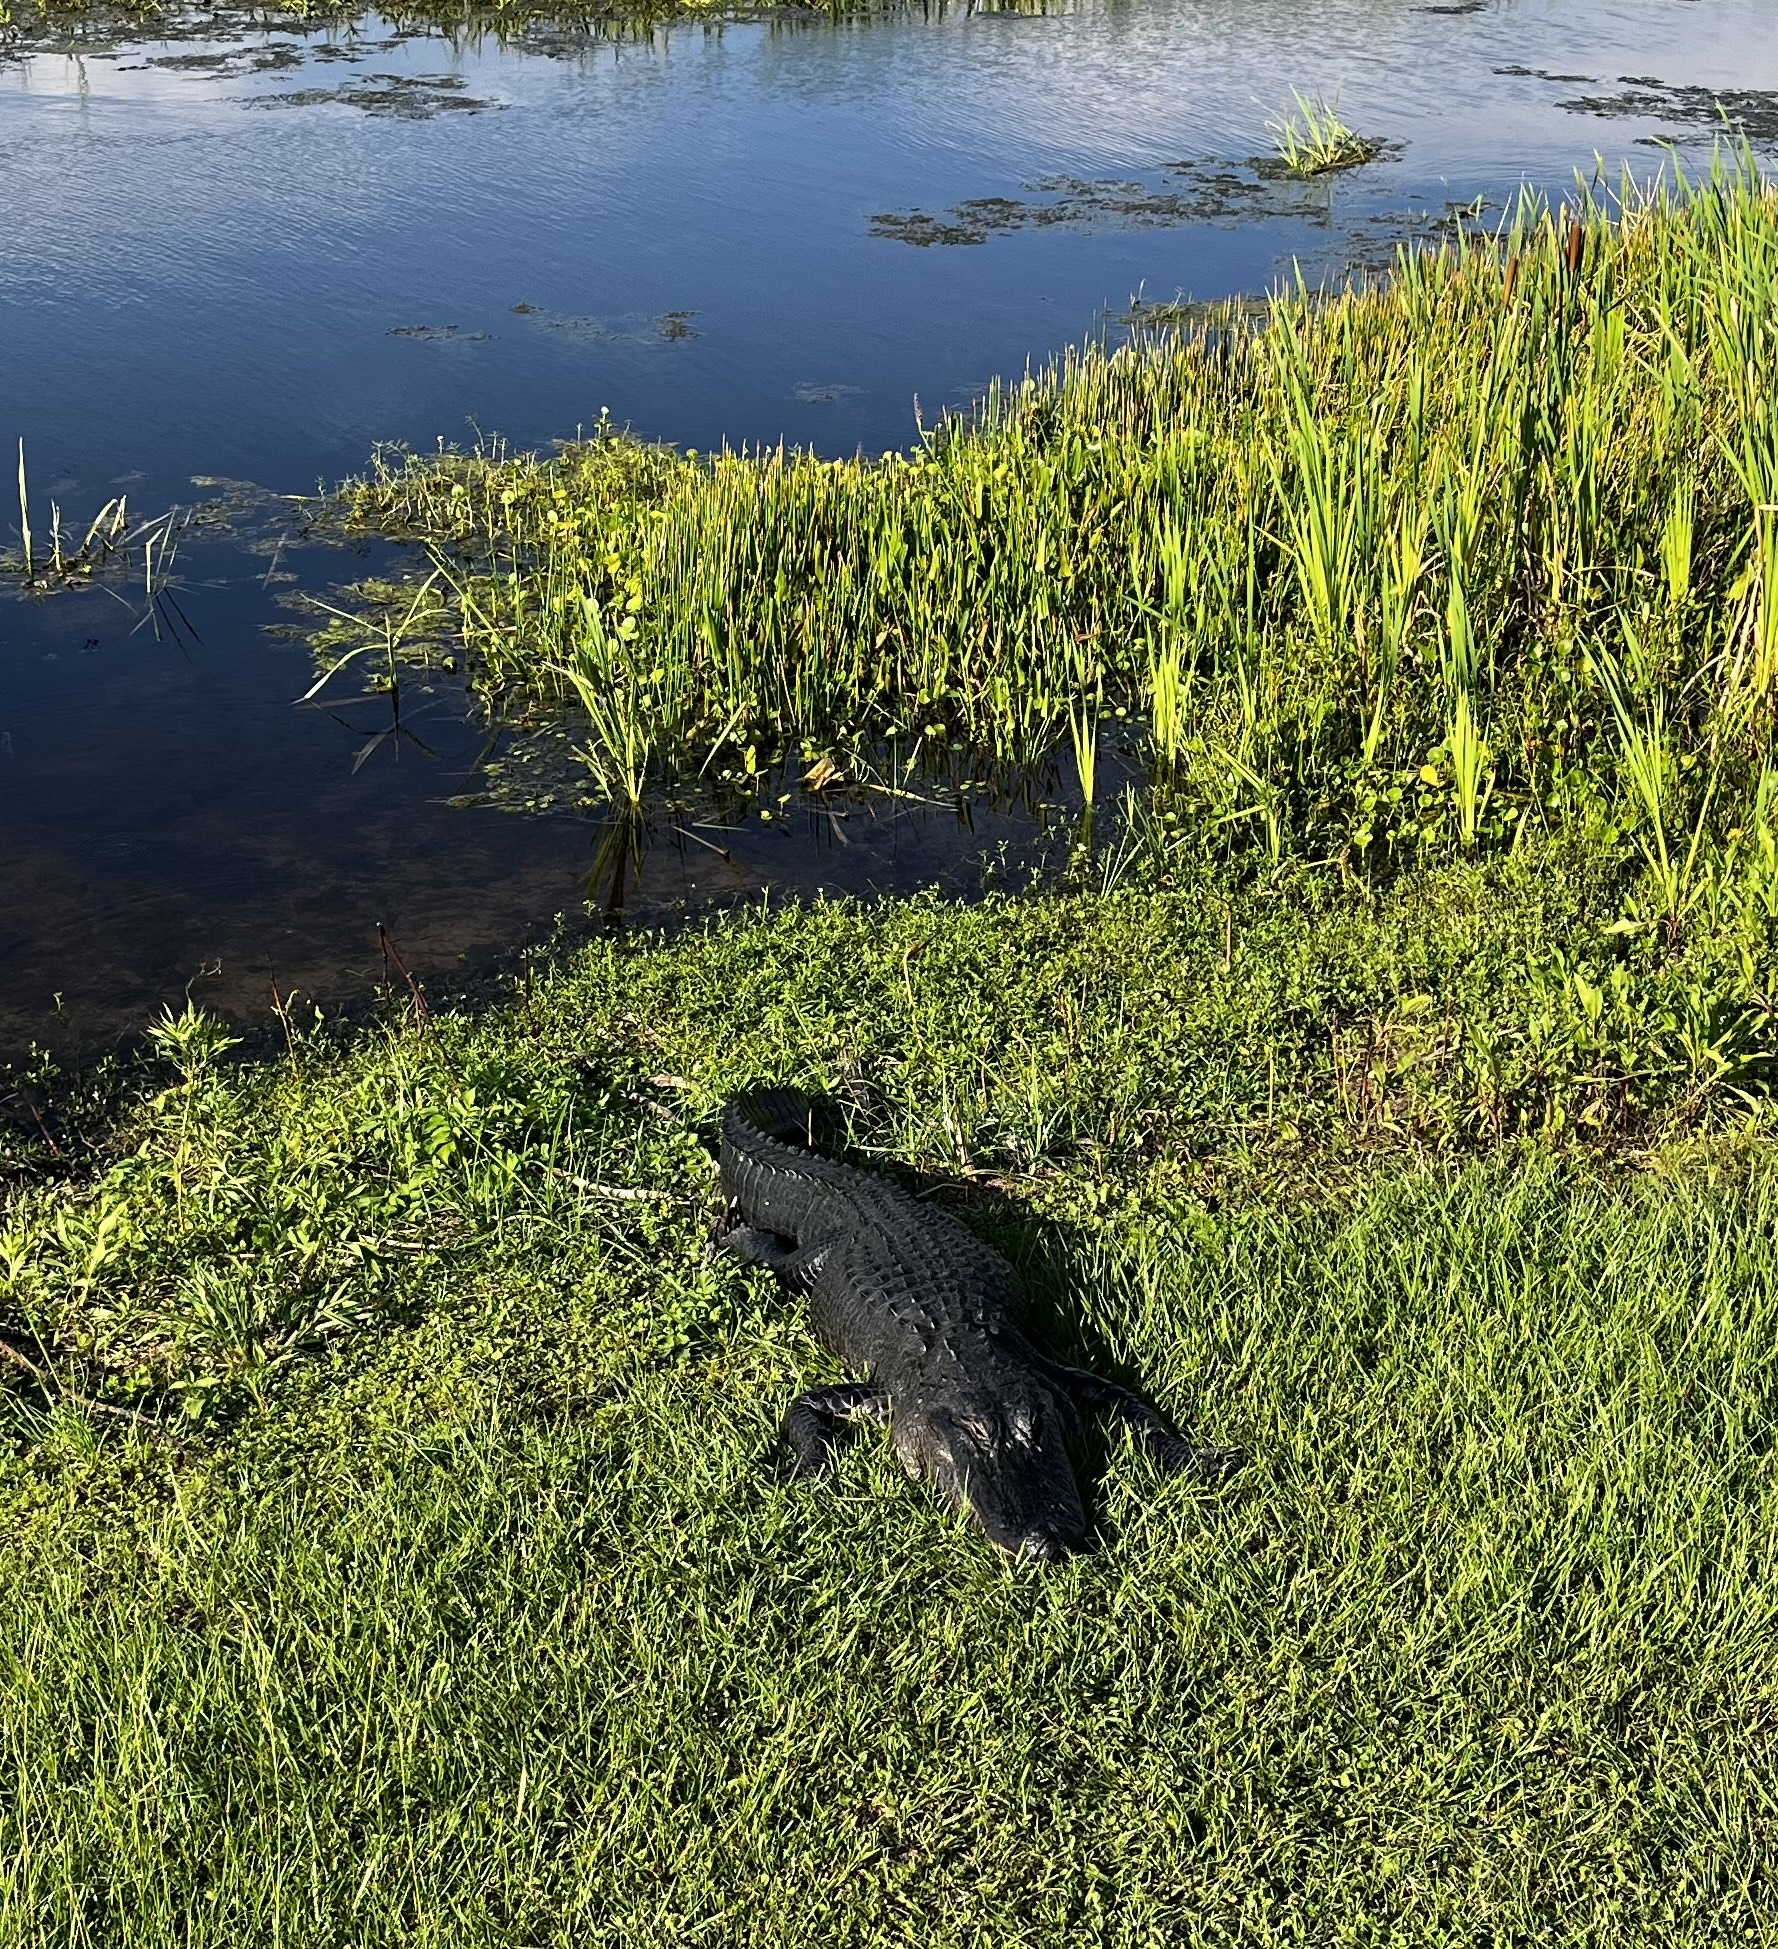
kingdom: Animalia
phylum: Chordata
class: Crocodylia
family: Alligatoridae
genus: Alligator
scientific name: Alligator mississippiensis
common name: American alligator
